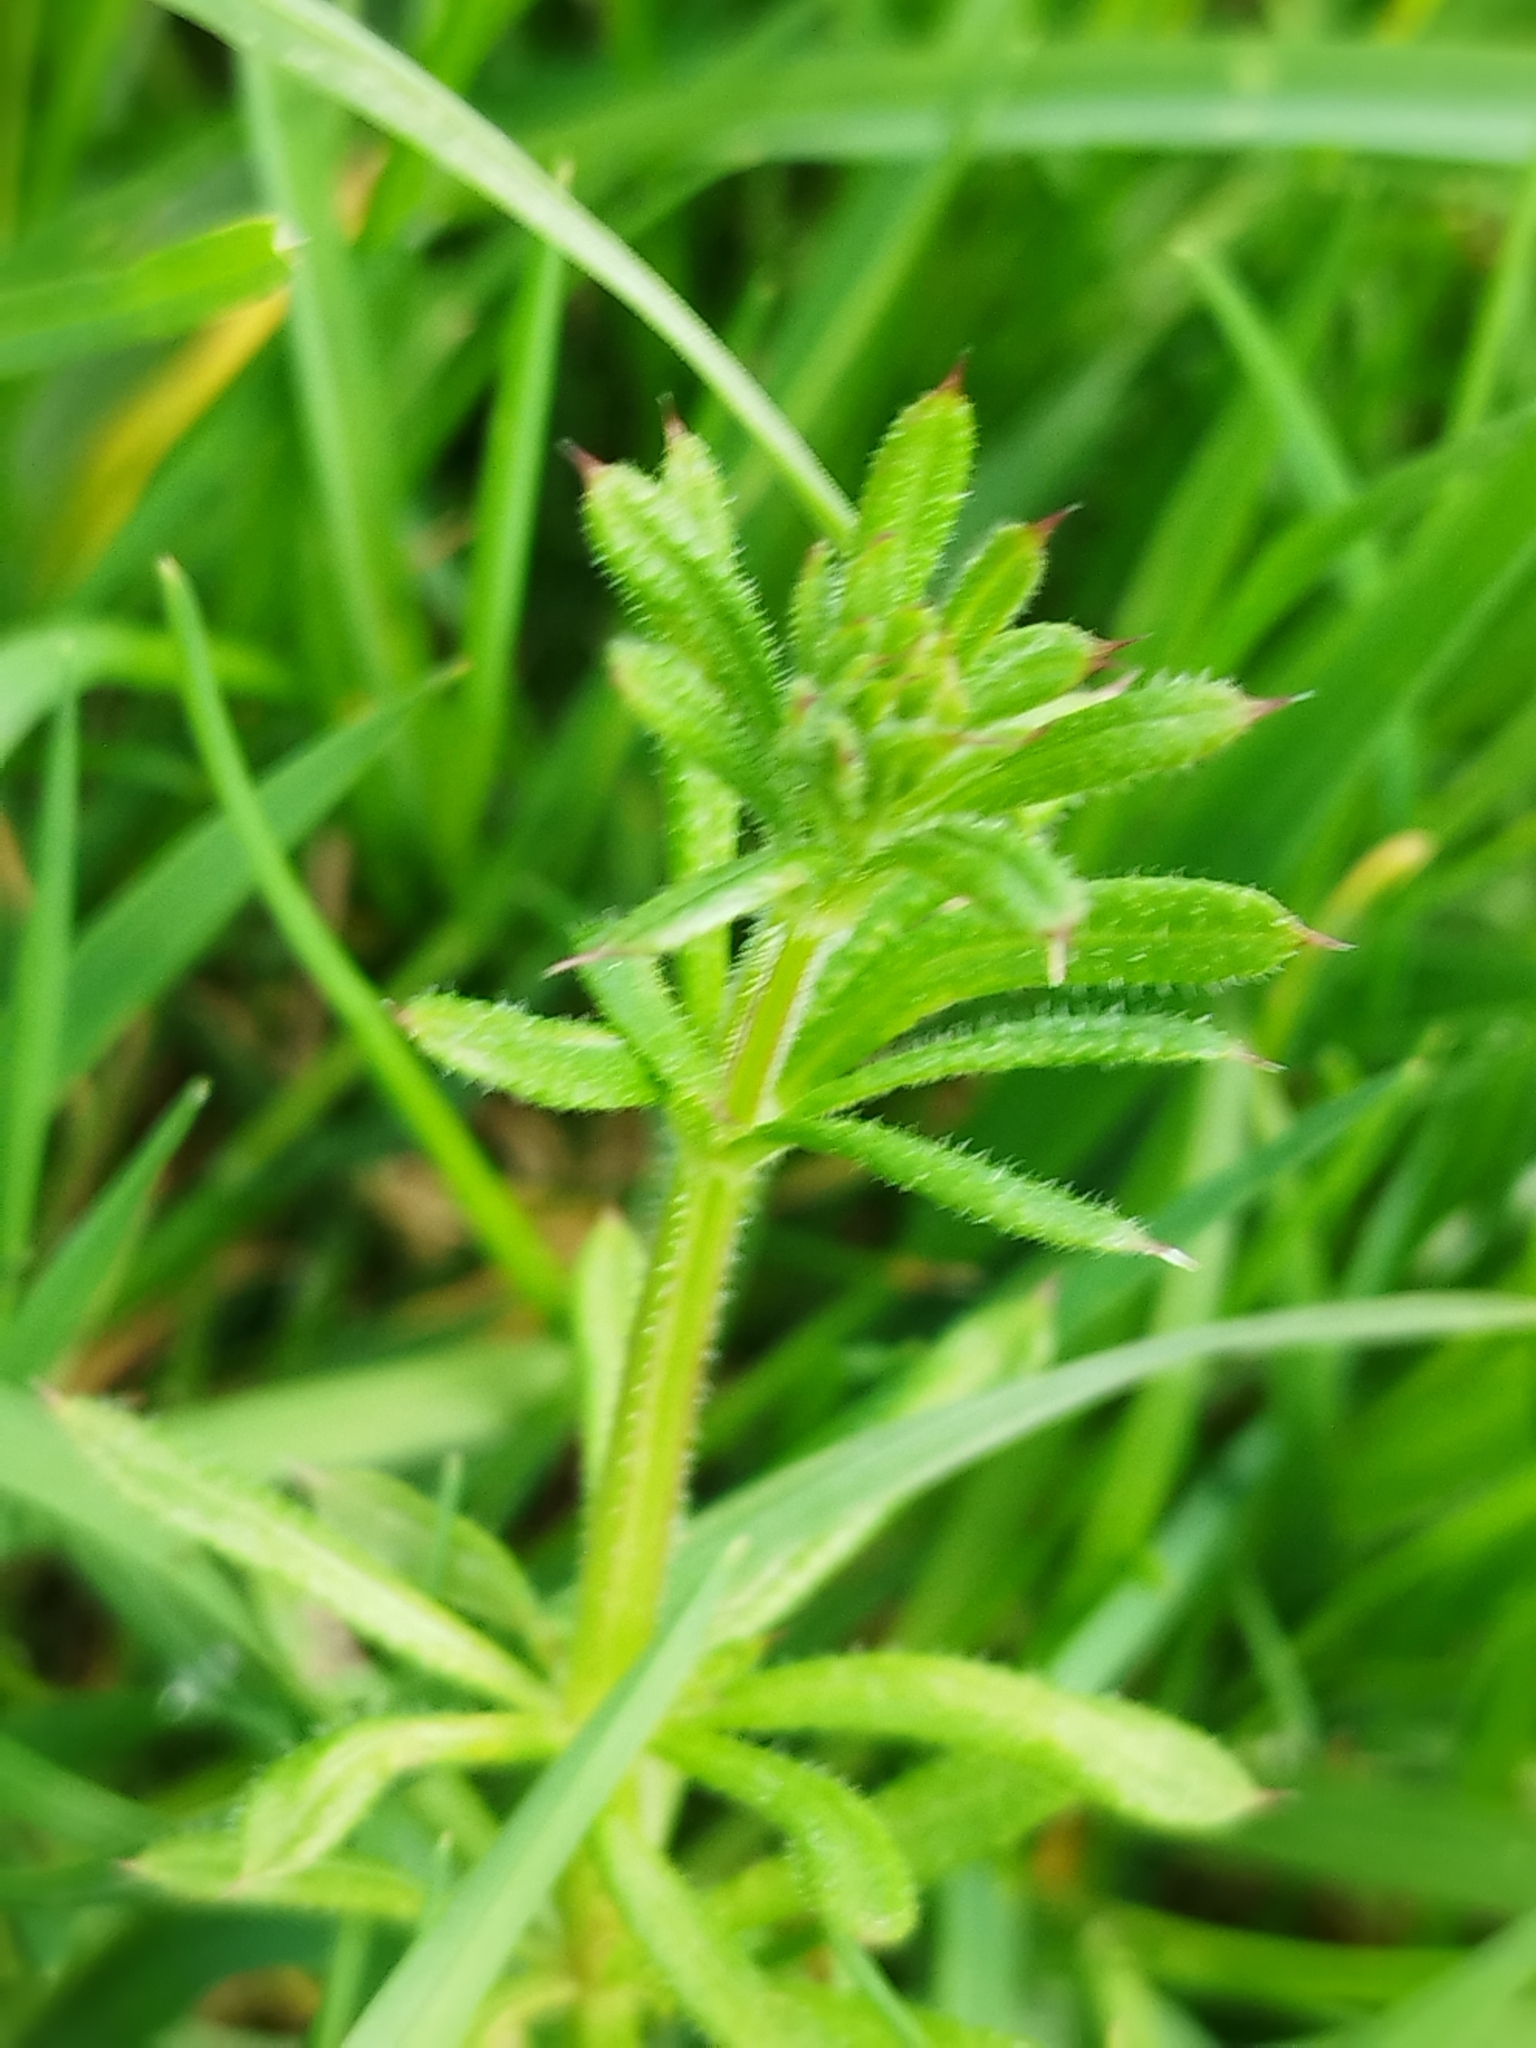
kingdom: Plantae
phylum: Tracheophyta
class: Magnoliopsida
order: Gentianales
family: Rubiaceae
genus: Galium
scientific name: Galium aparine
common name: Cleavers
